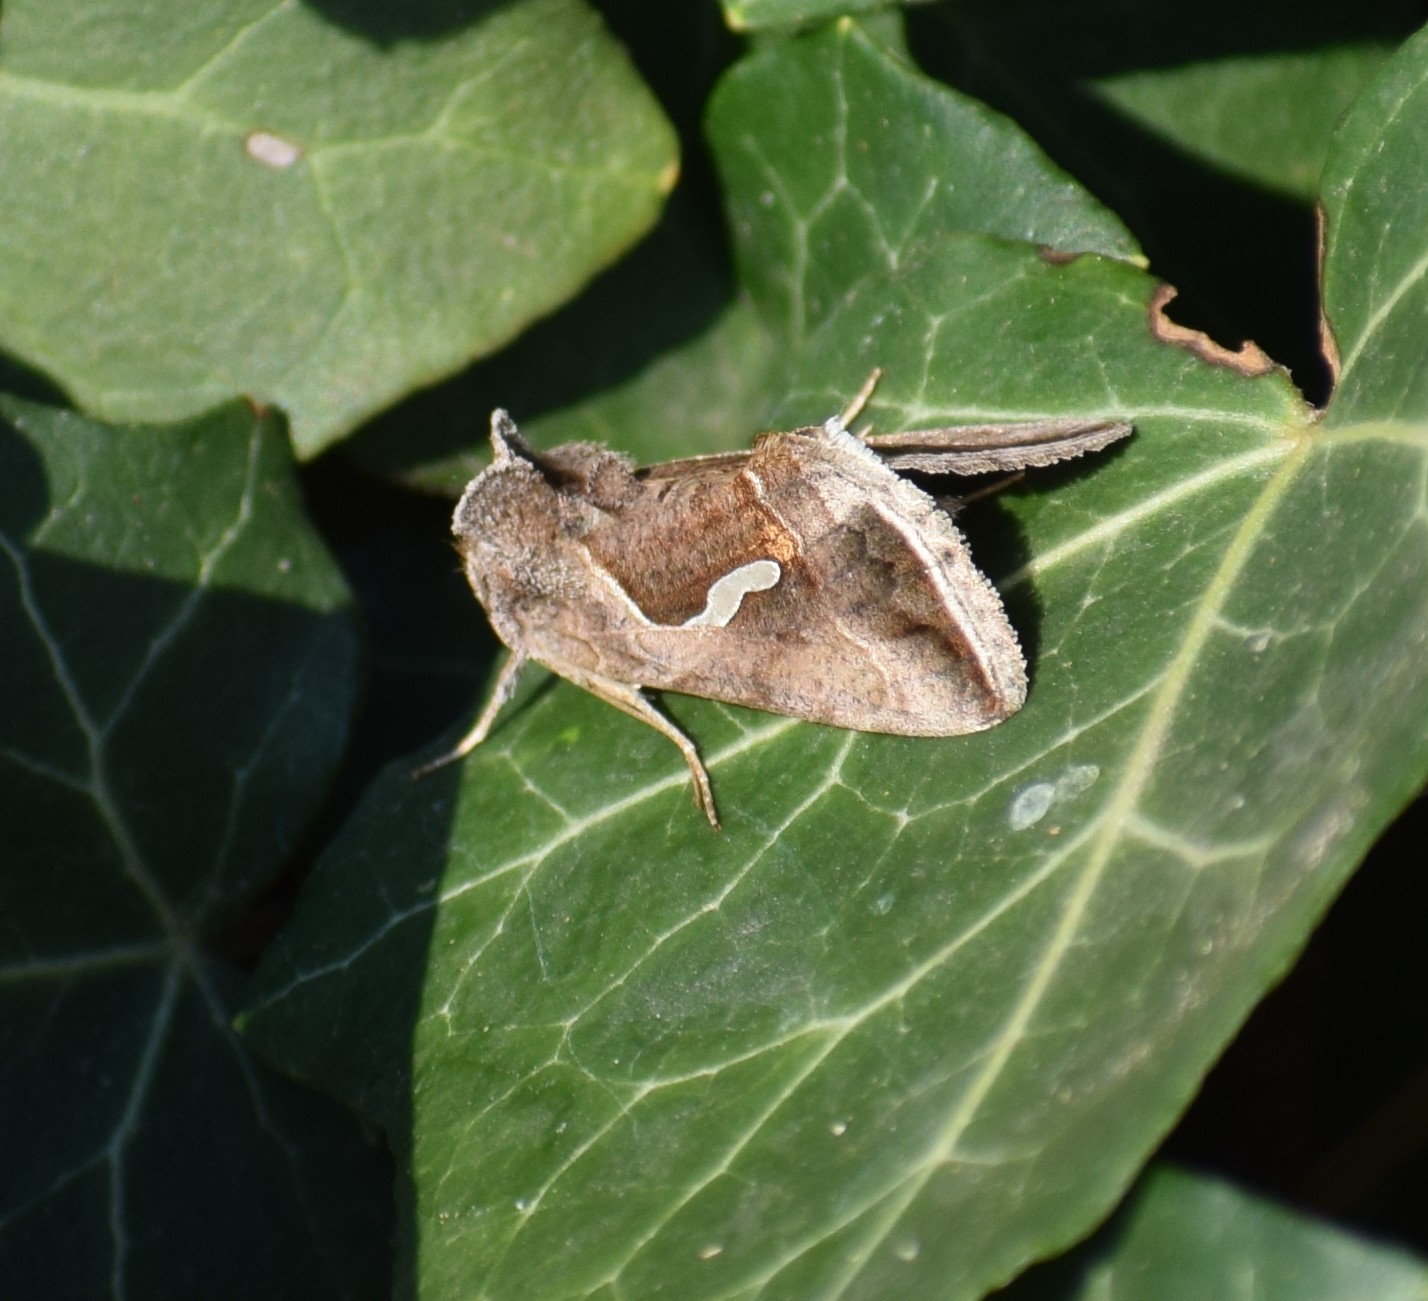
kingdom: Animalia
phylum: Arthropoda
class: Insecta
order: Lepidoptera
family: Noctuidae
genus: Macdunnoughia
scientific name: Macdunnoughia confusa
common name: Dewick's plusia
